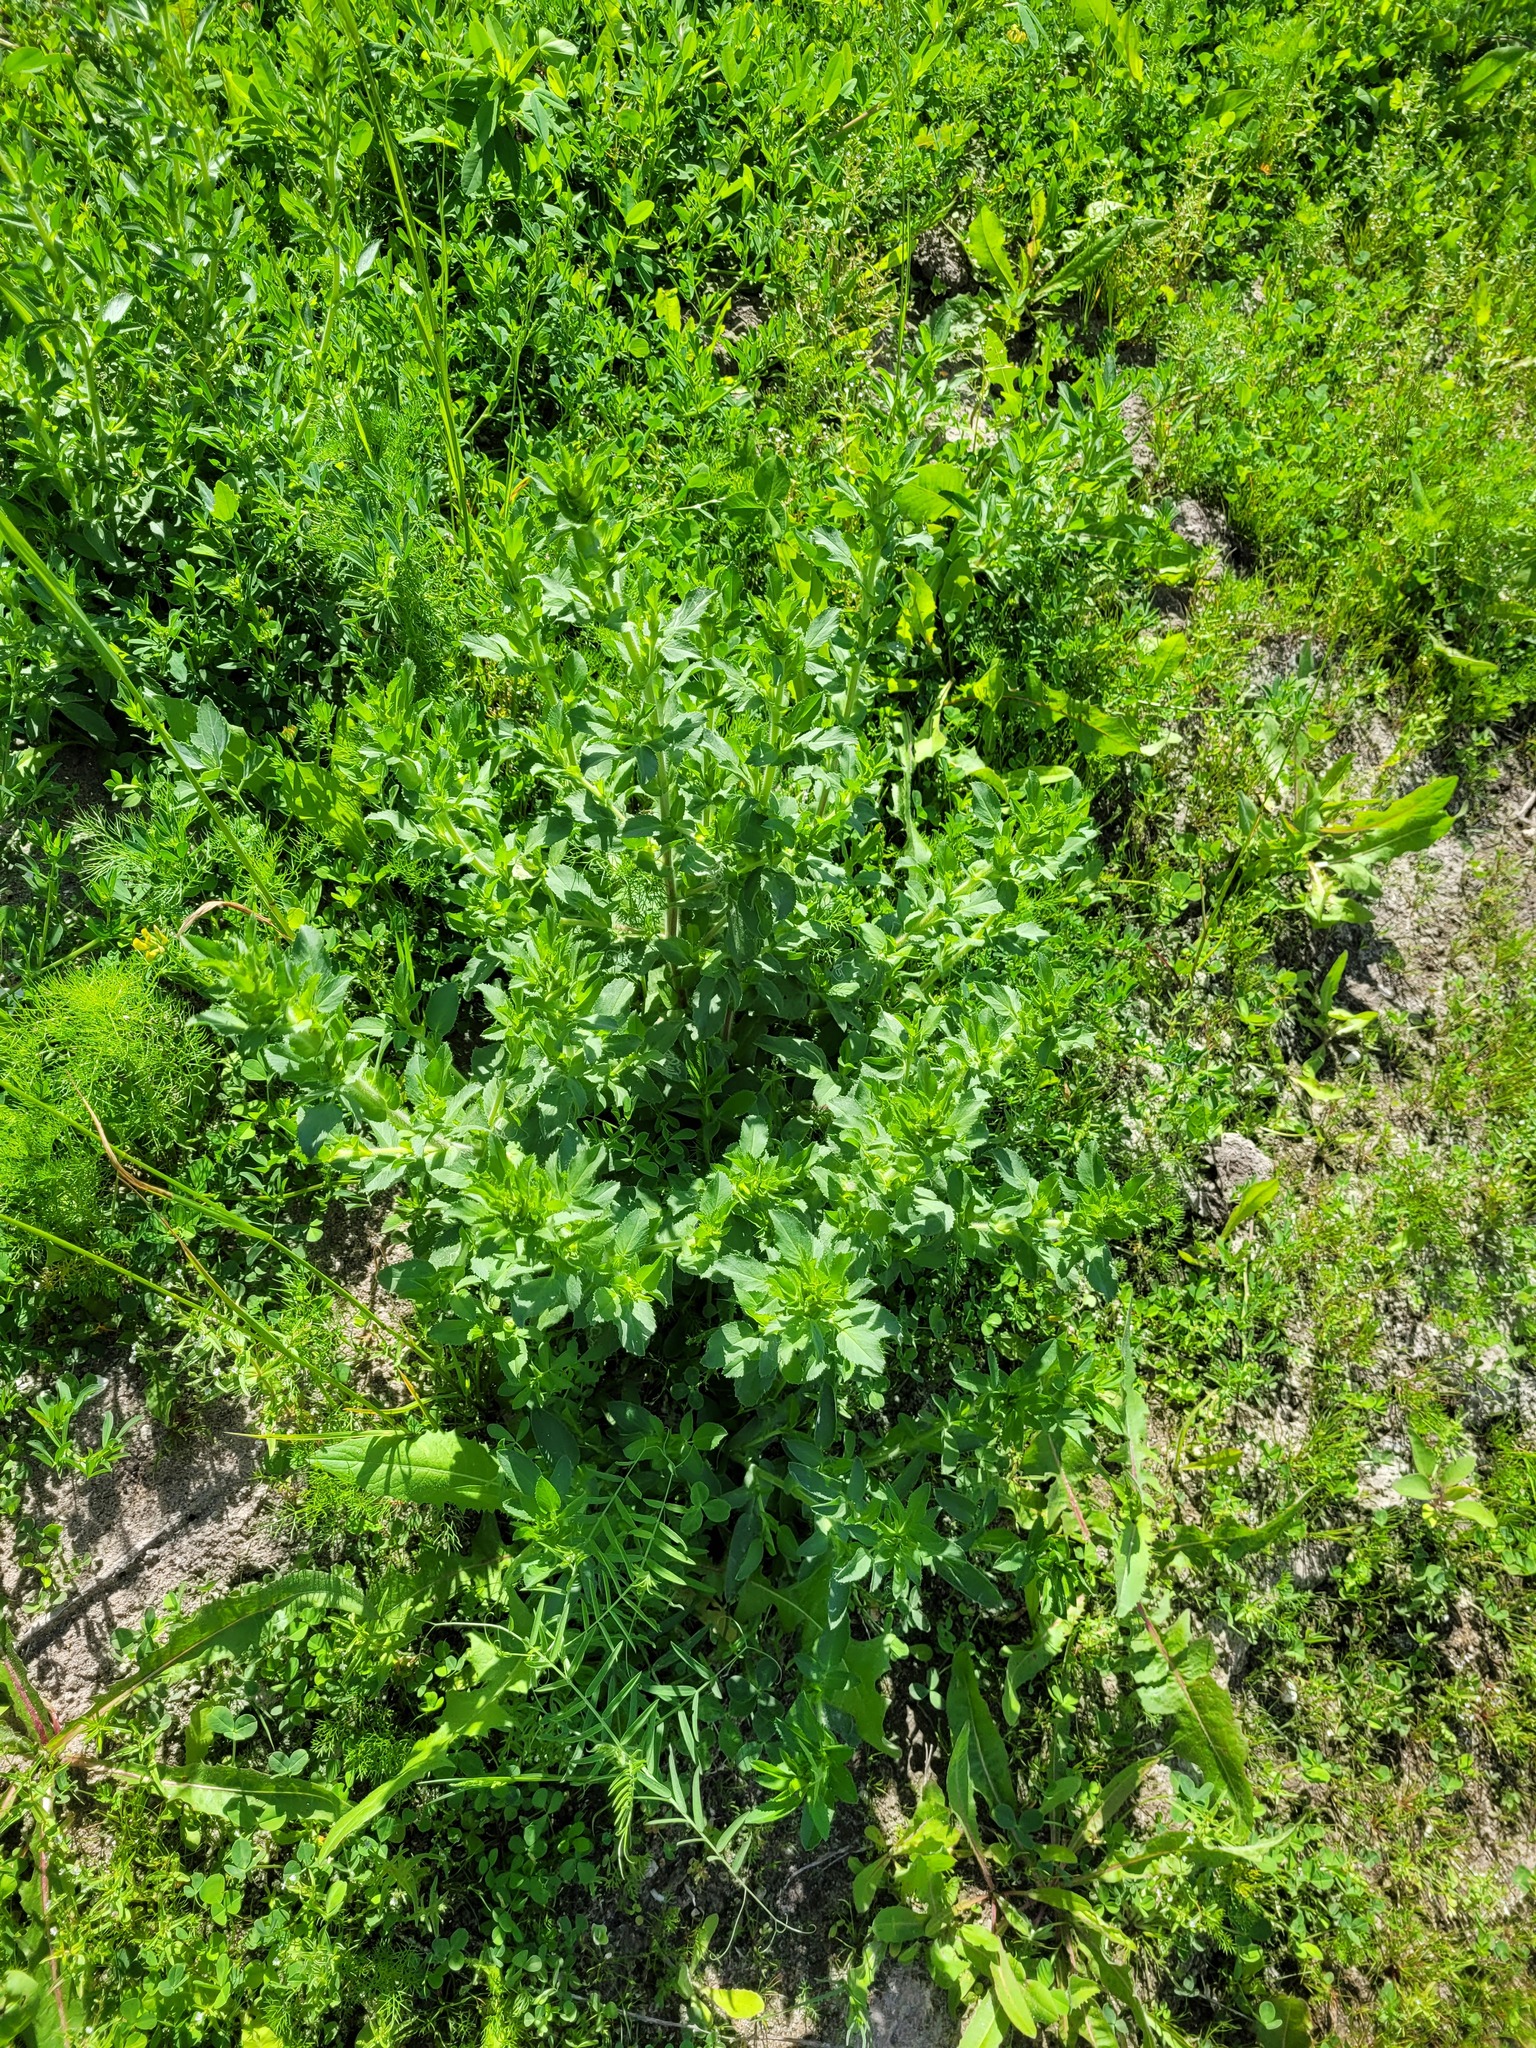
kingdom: Plantae
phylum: Tracheophyta
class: Magnoliopsida
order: Fabales
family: Fabaceae
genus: Ononis
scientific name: Ononis arvensis
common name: Field restharrow
